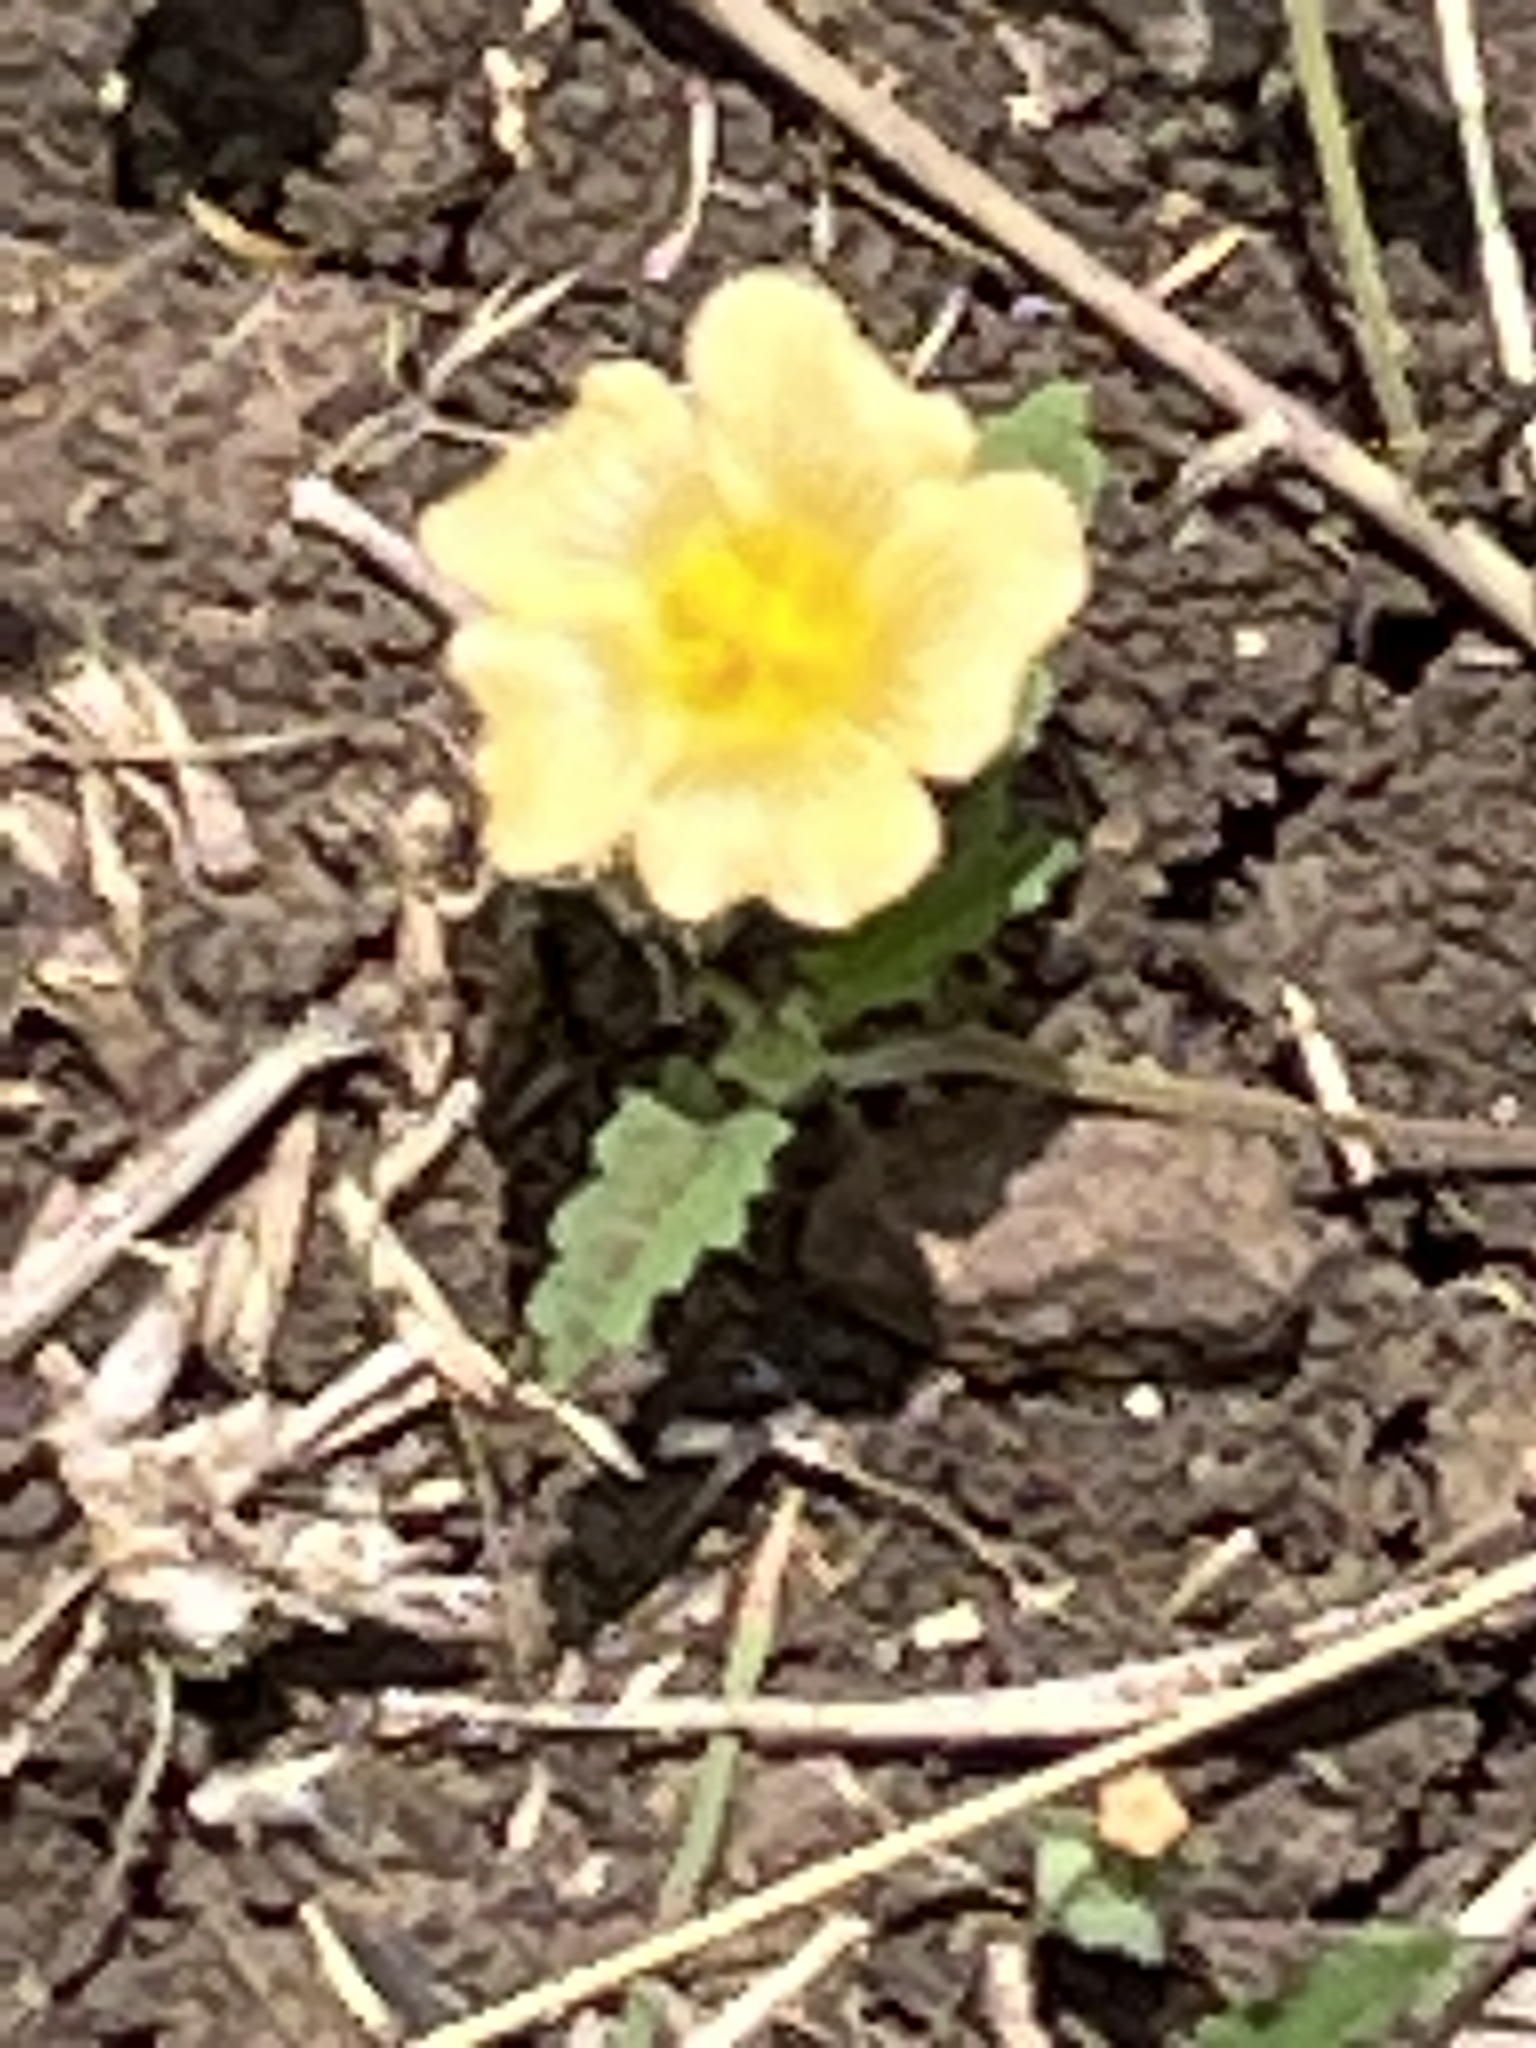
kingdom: Plantae
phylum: Tracheophyta
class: Magnoliopsida
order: Malvales
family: Malvaceae
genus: Sida
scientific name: Sida abutilifolia
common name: Spreading fanpetals
